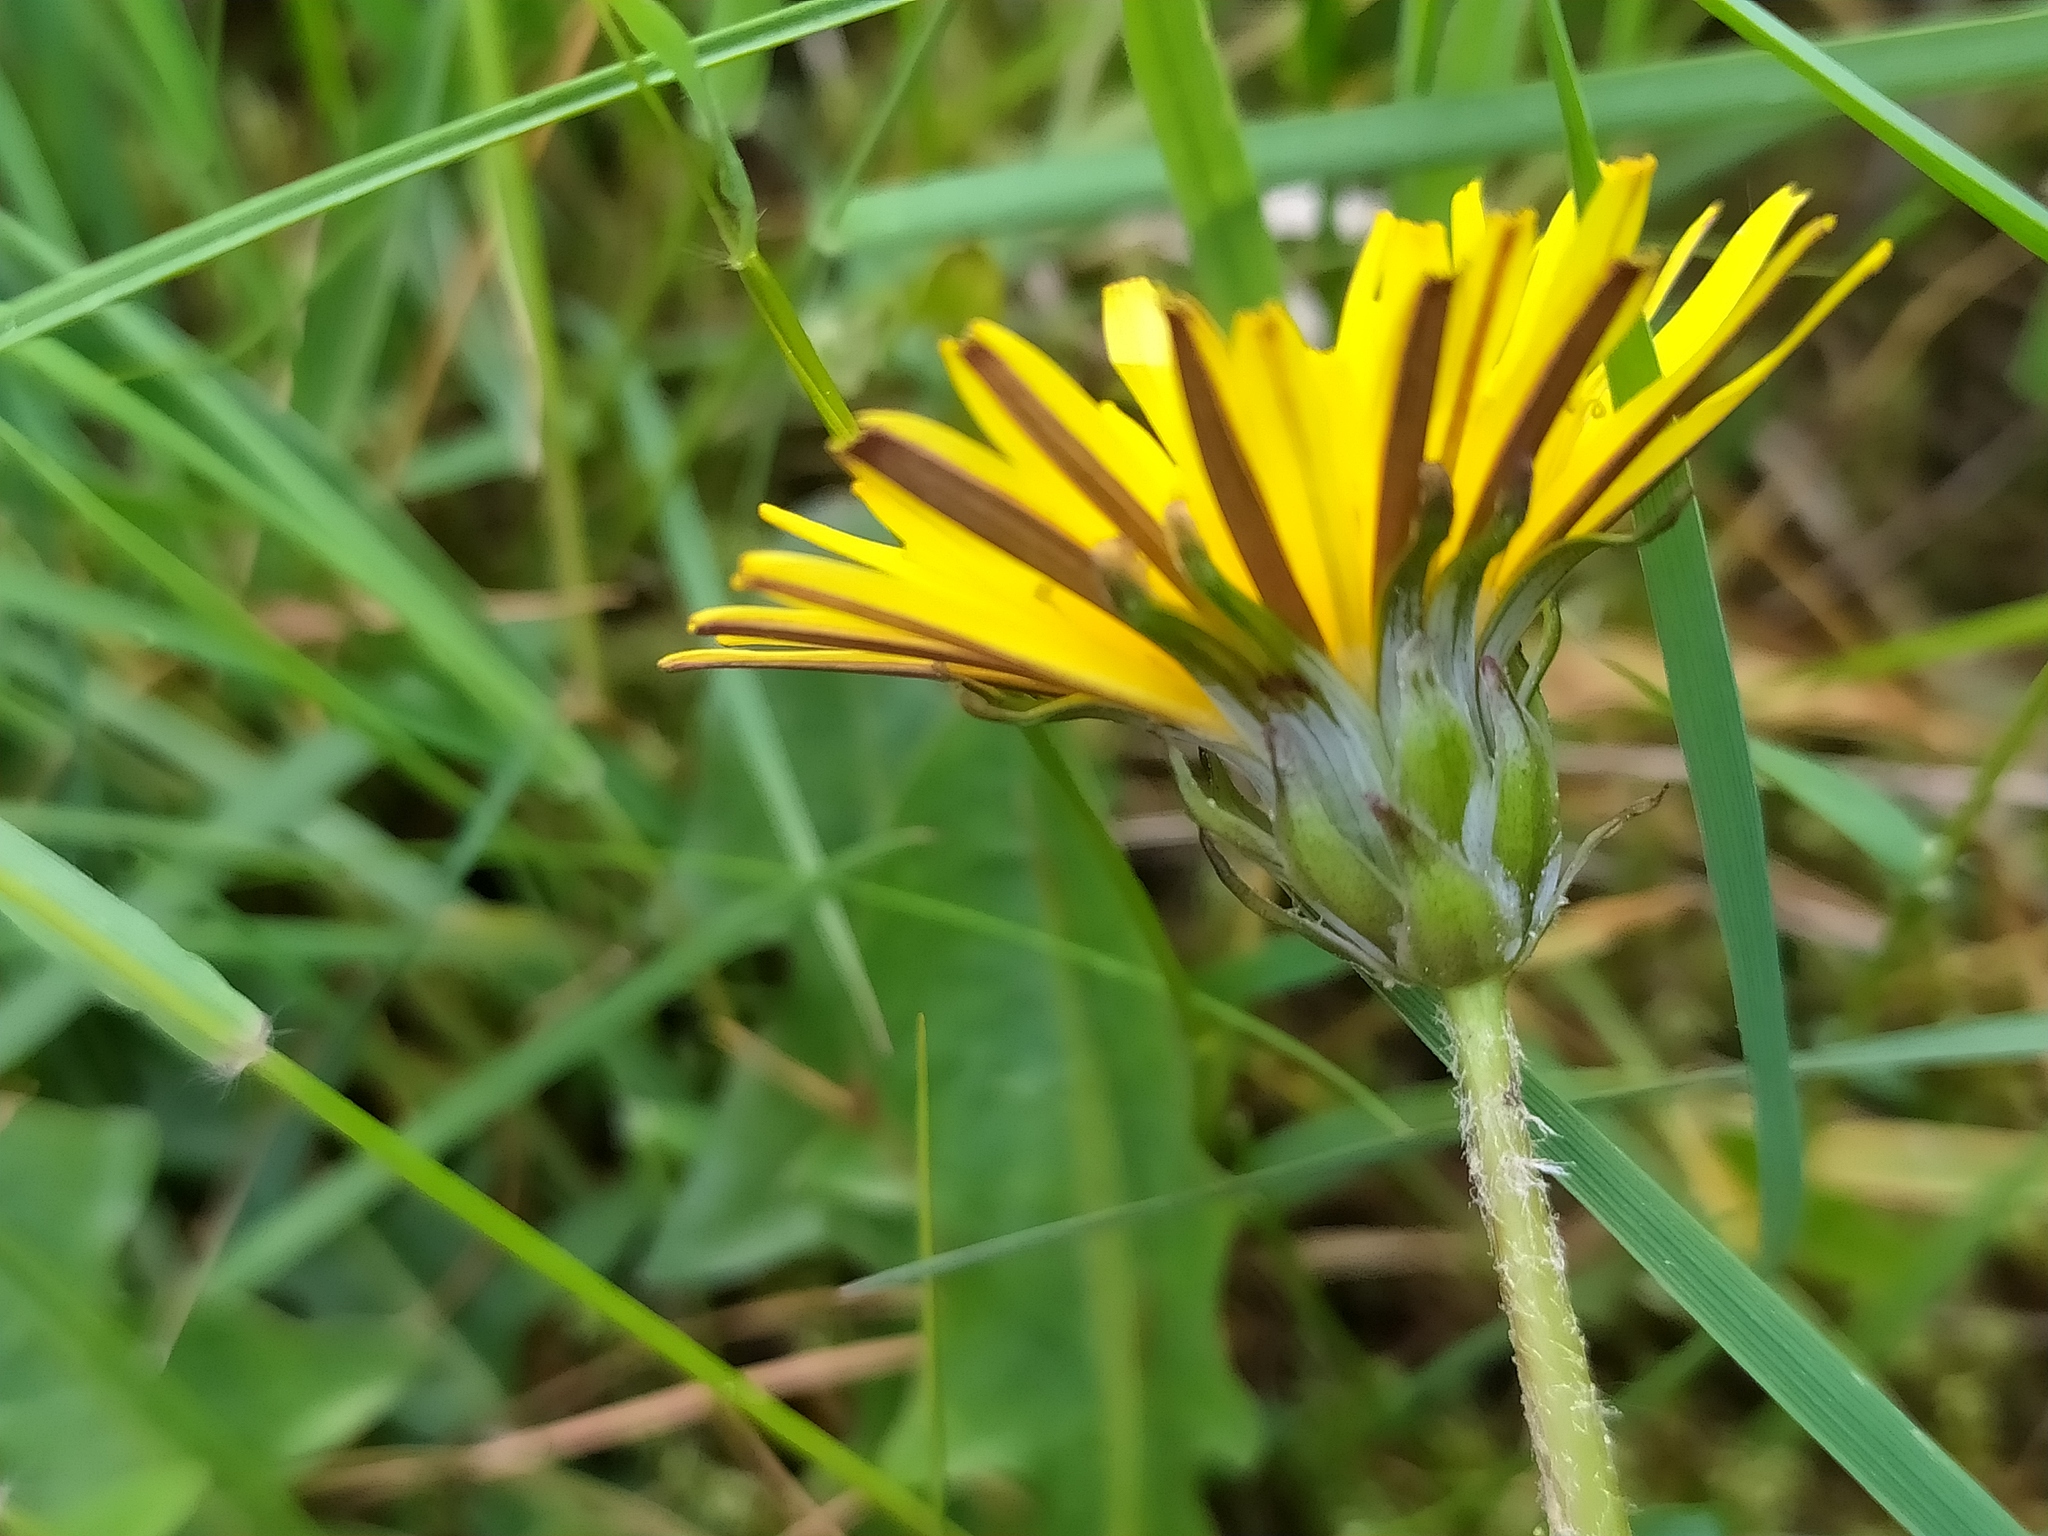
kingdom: Plantae
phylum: Tracheophyta
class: Magnoliopsida
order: Asterales
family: Asteraceae
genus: Taraxacum
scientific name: Taraxacum nordstedtii
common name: Nordstedt's dandelion
